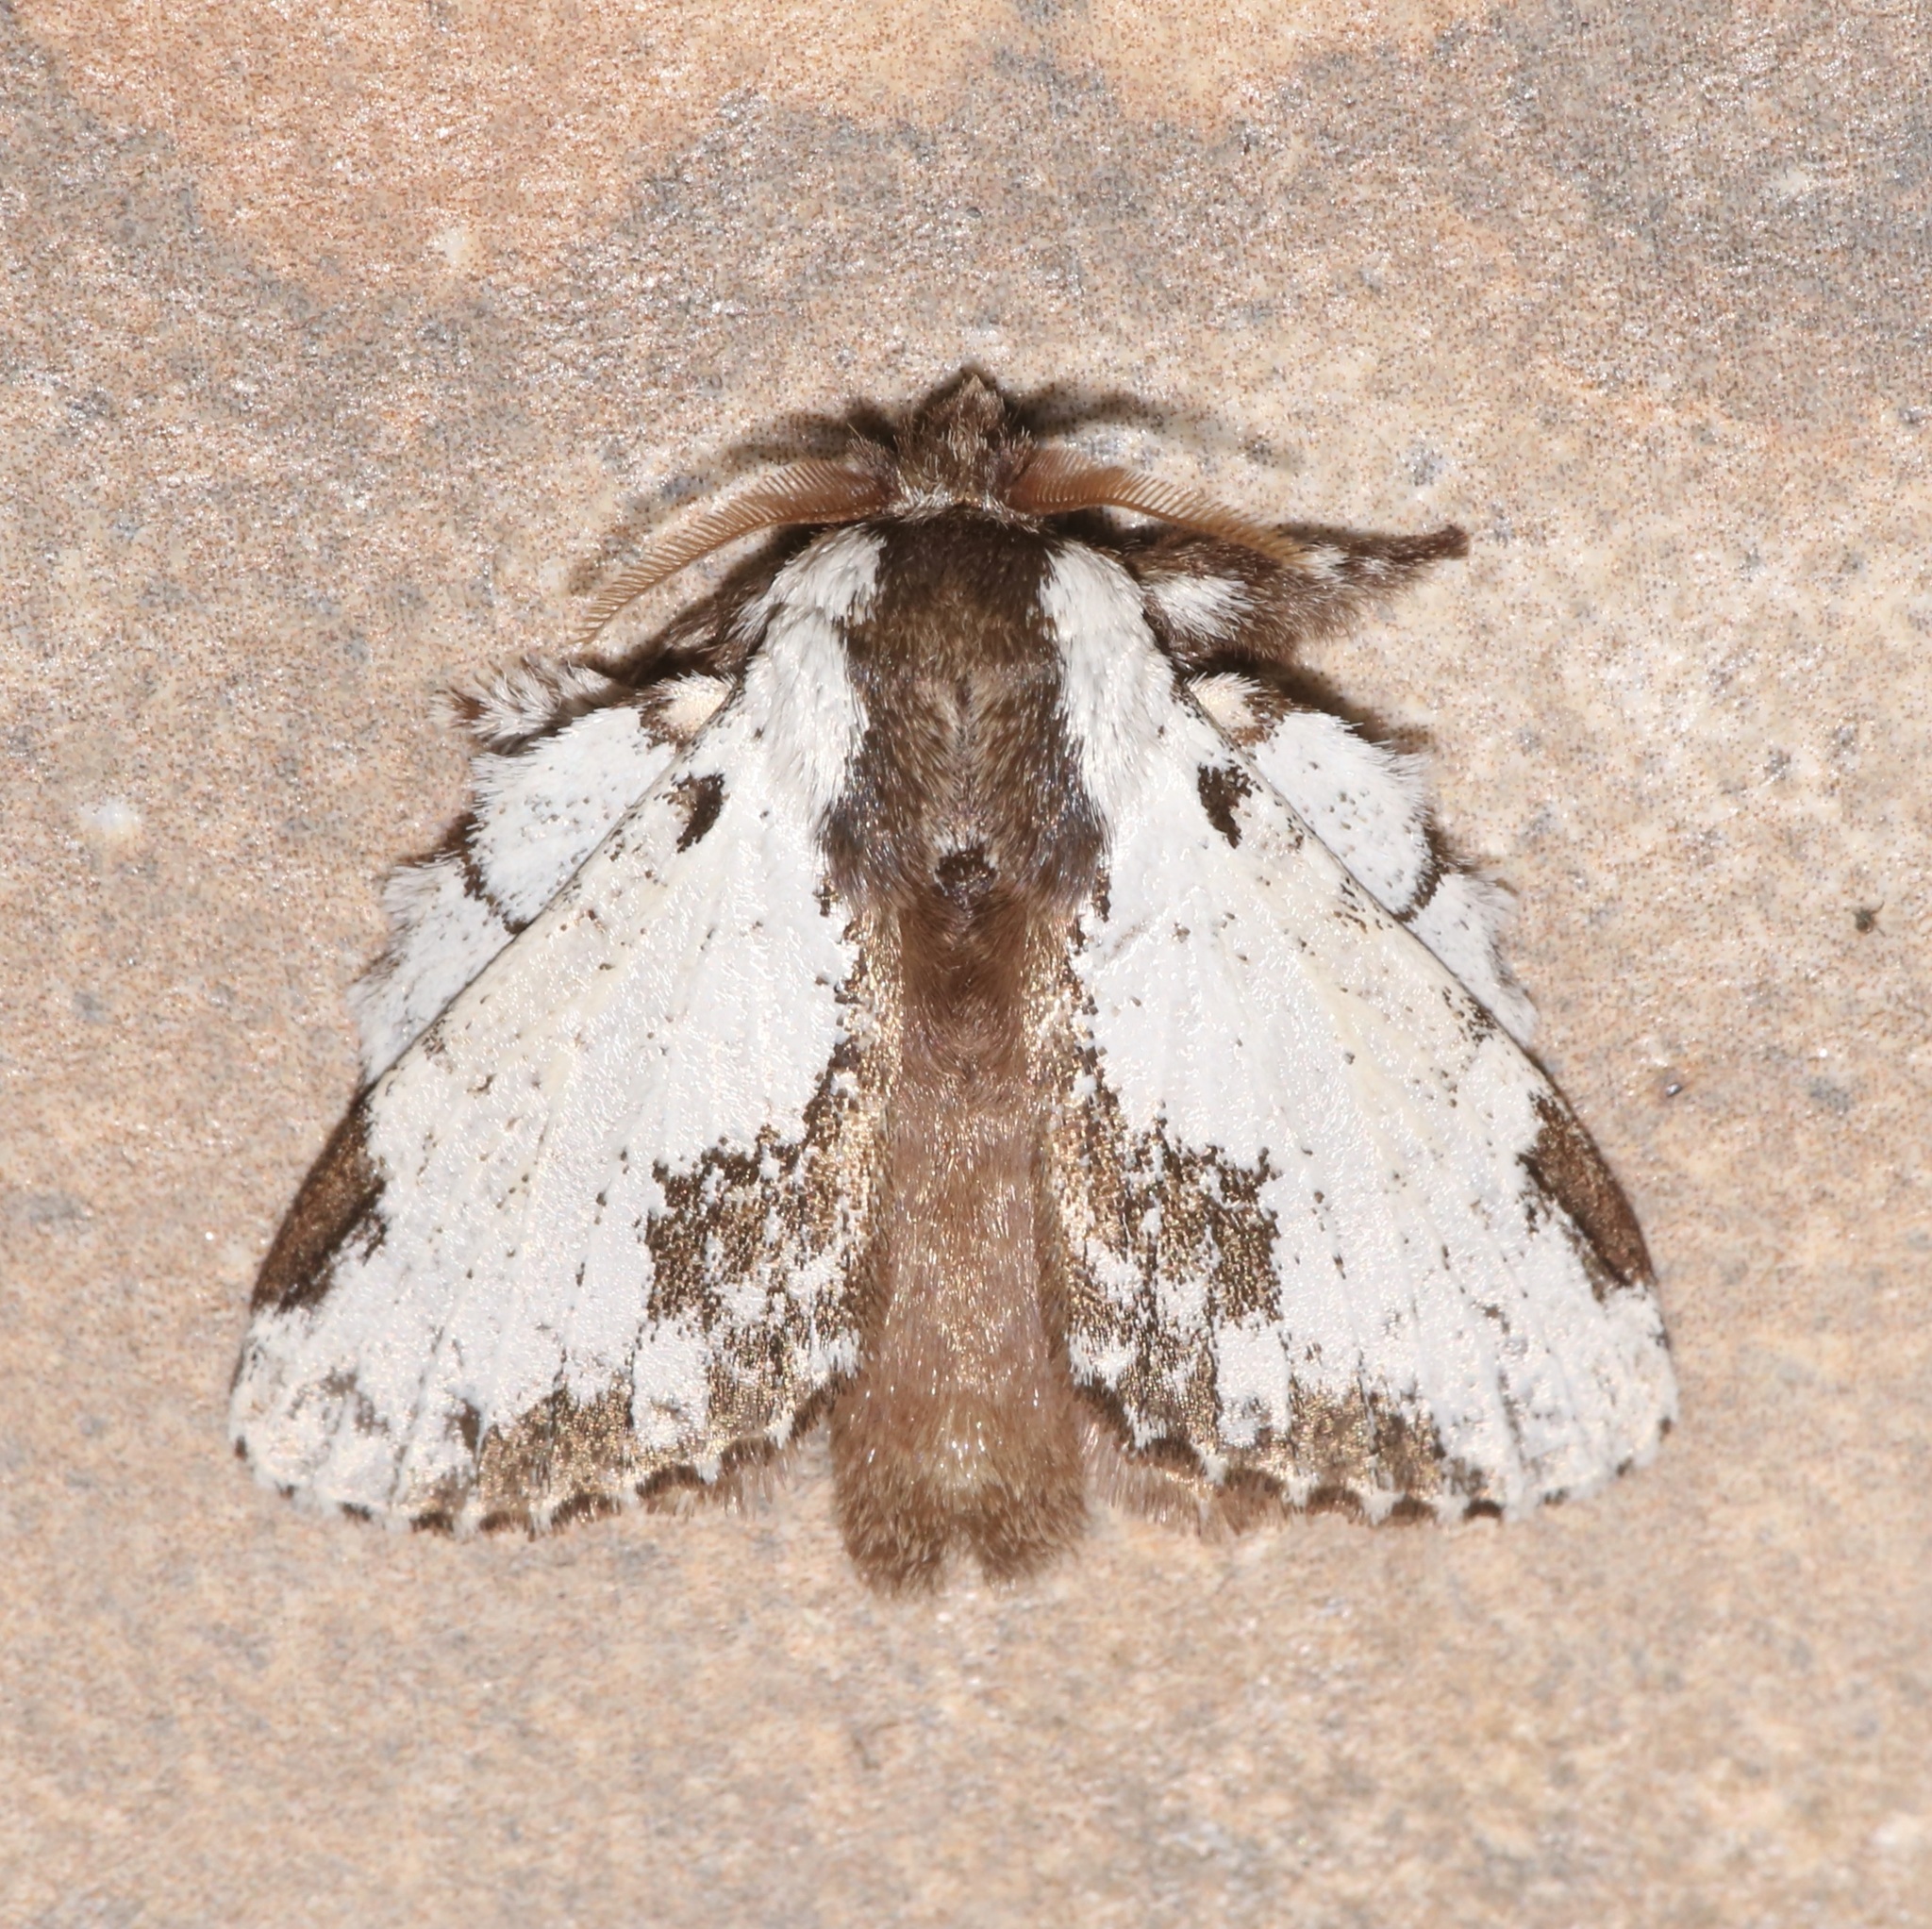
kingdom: Animalia
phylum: Arthropoda
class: Insecta
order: Lepidoptera
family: Lasiocampidae
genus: Euglyphis
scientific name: Euglyphis braganza
